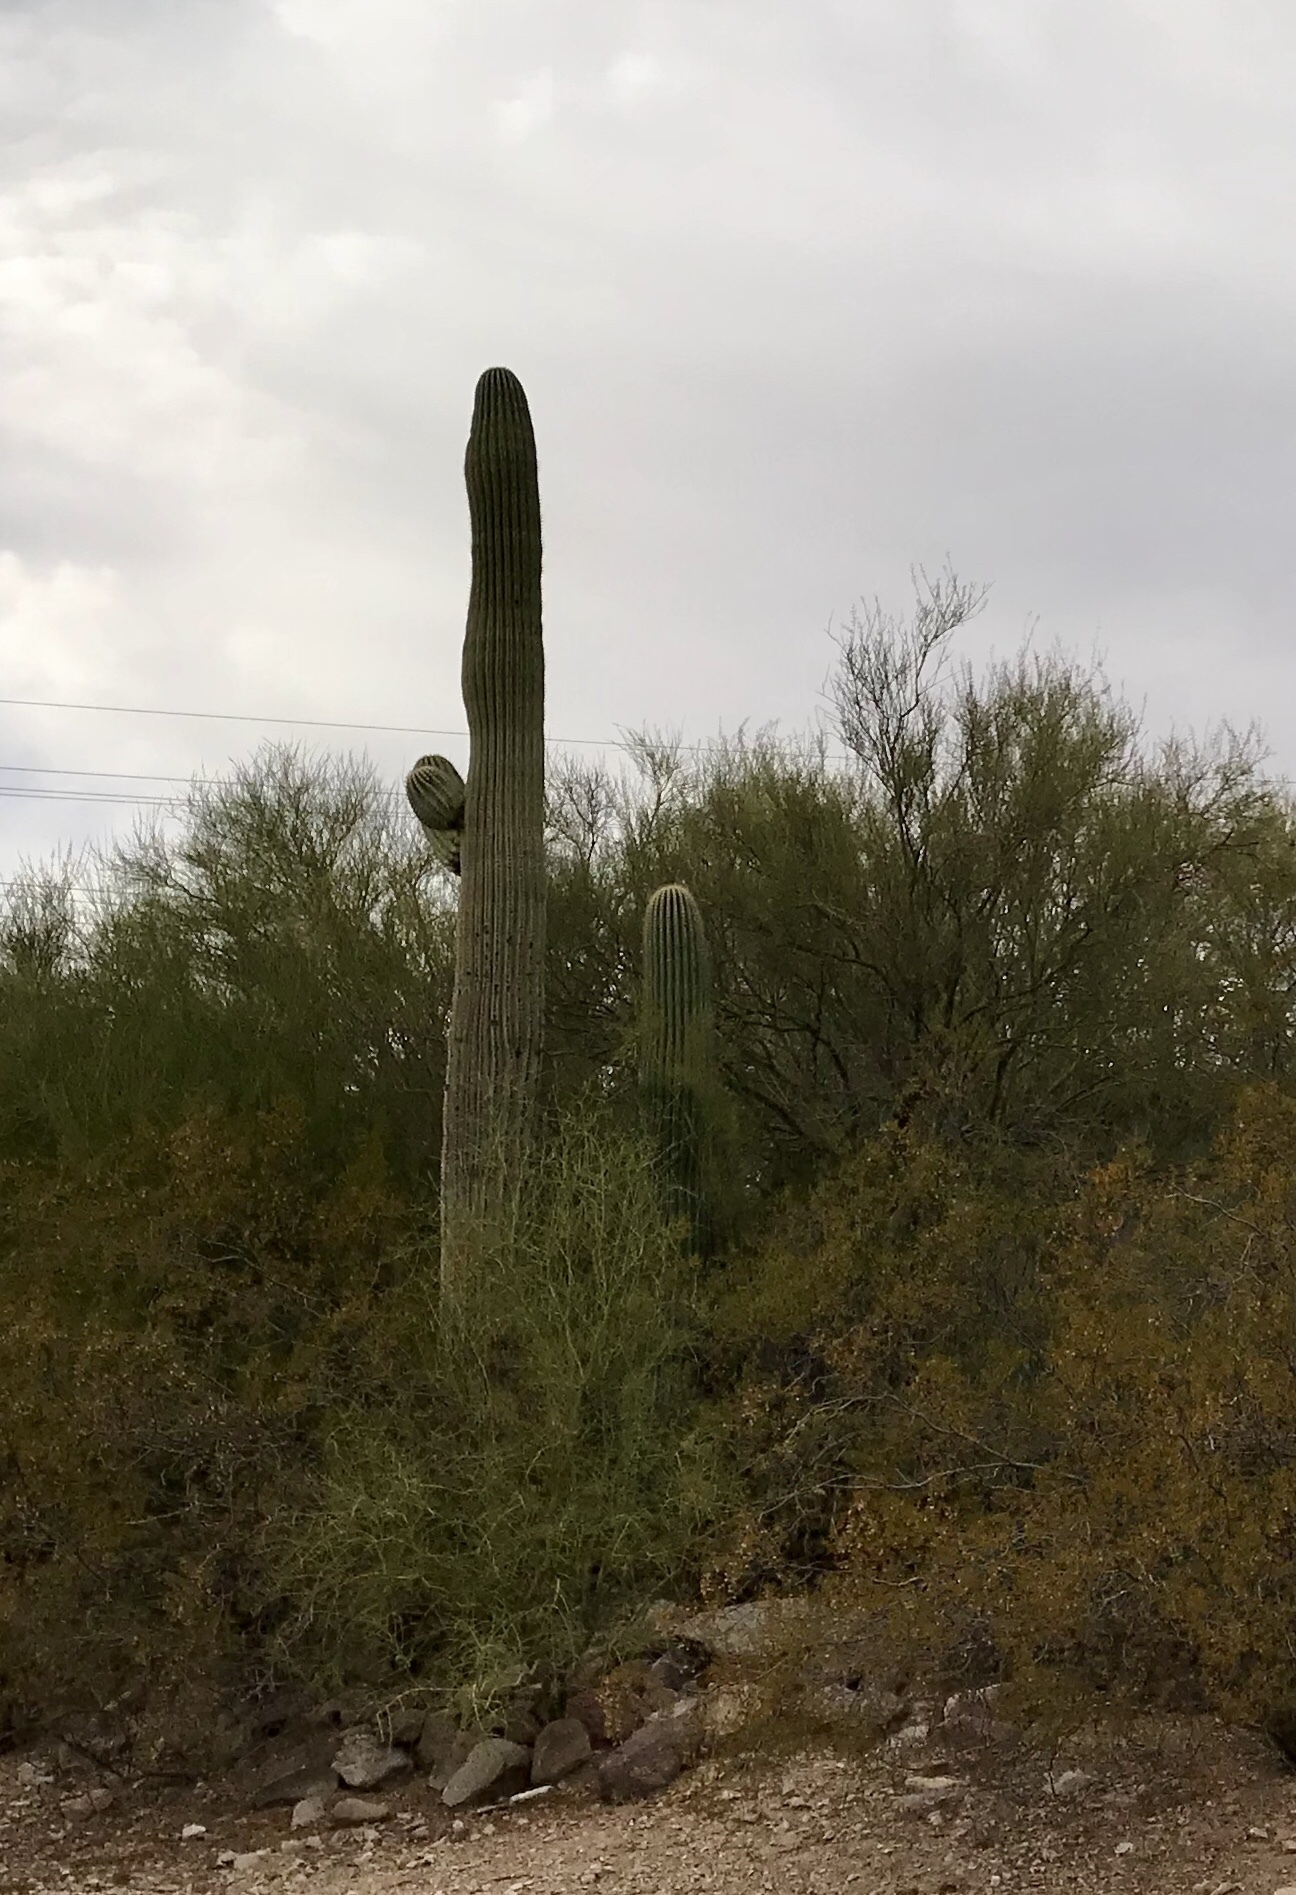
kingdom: Plantae
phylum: Tracheophyta
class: Magnoliopsida
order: Caryophyllales
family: Cactaceae
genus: Carnegiea
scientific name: Carnegiea gigantea
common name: Saguaro
